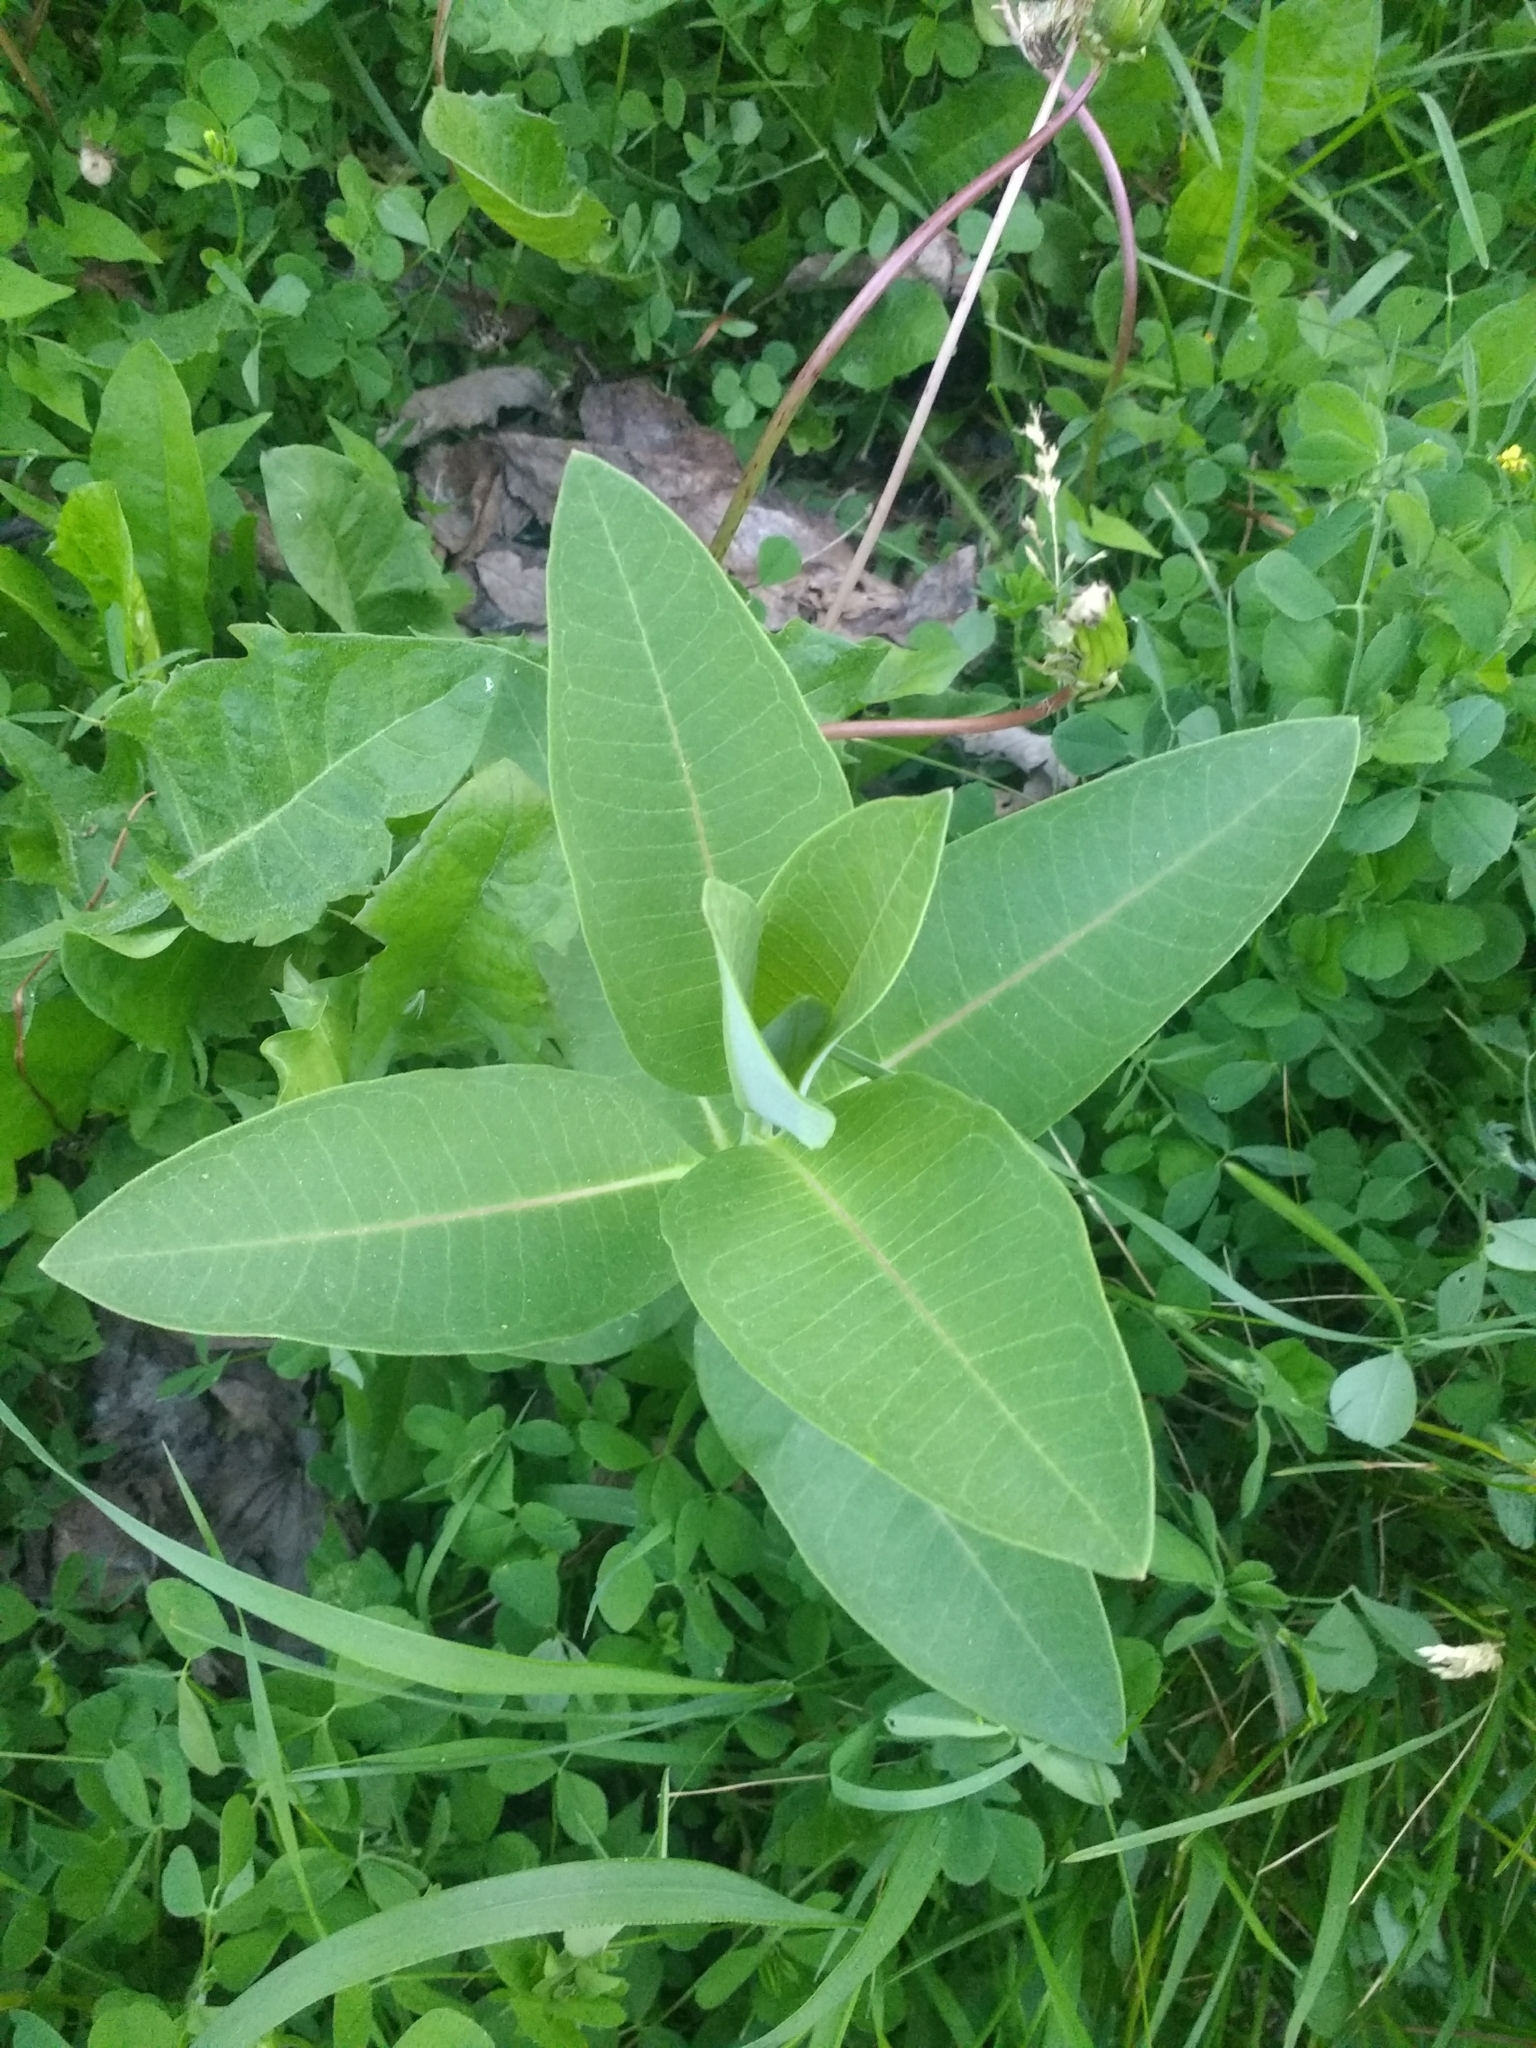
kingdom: Plantae
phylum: Tracheophyta
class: Magnoliopsida
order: Gentianales
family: Apocynaceae
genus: Asclepias
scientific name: Asclepias syriaca
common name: Common milkweed
